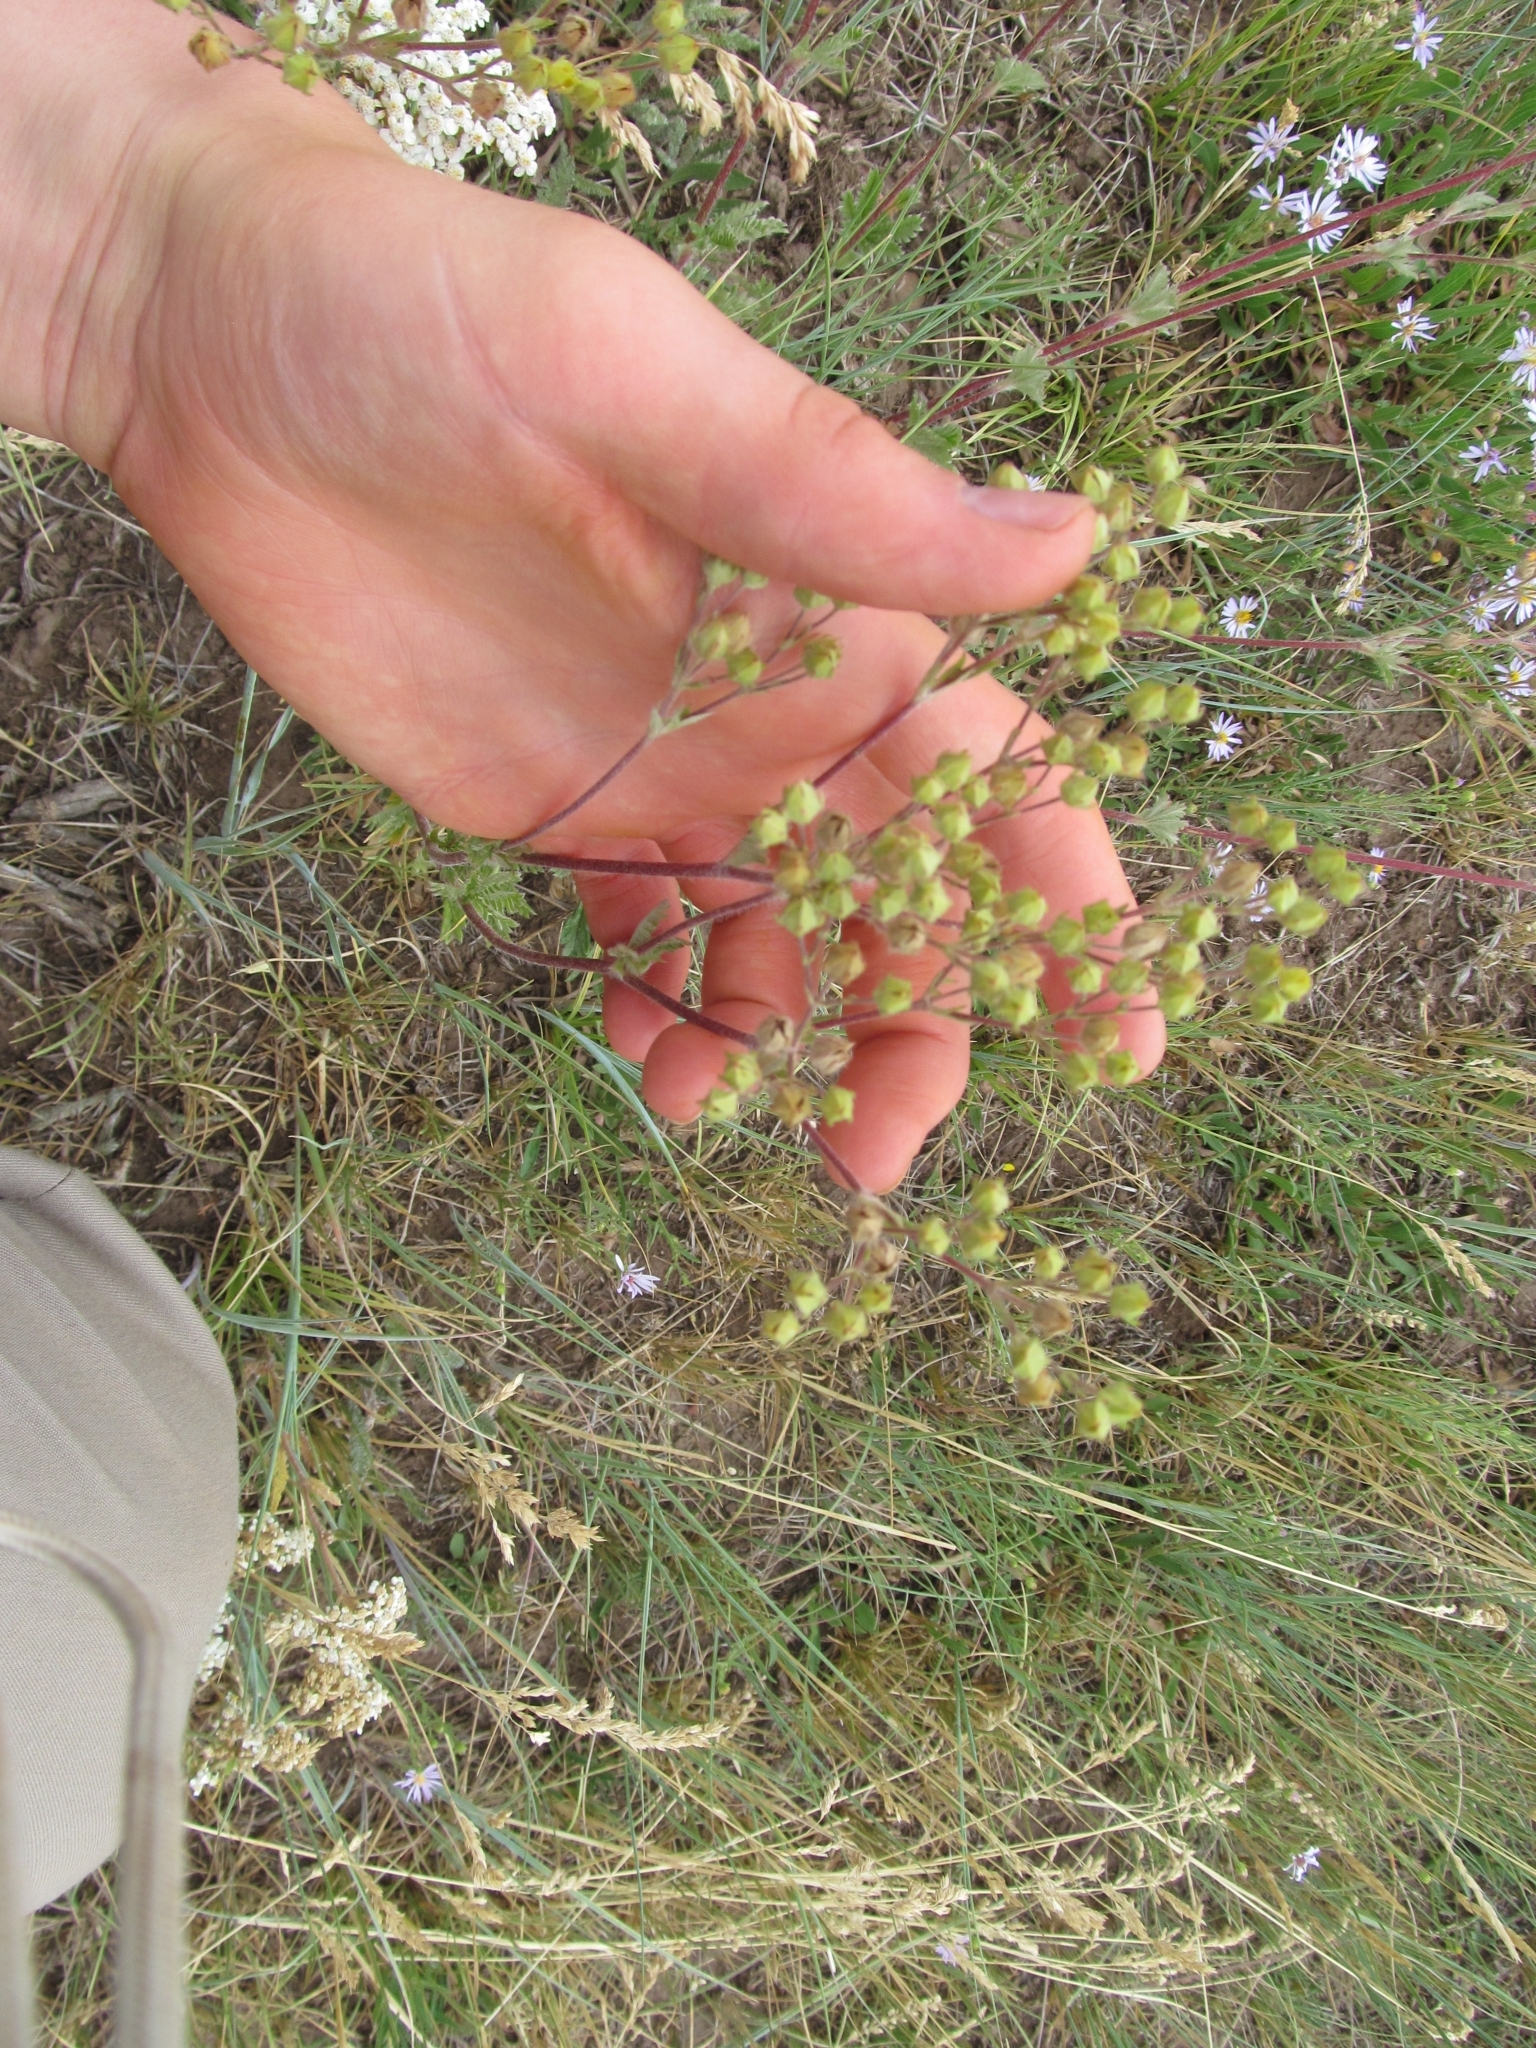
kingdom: Plantae
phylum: Tracheophyta
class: Magnoliopsida
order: Rosales
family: Rosaceae
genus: Potentilla
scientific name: Potentilla gracilis
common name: Graceful cinquefoil
